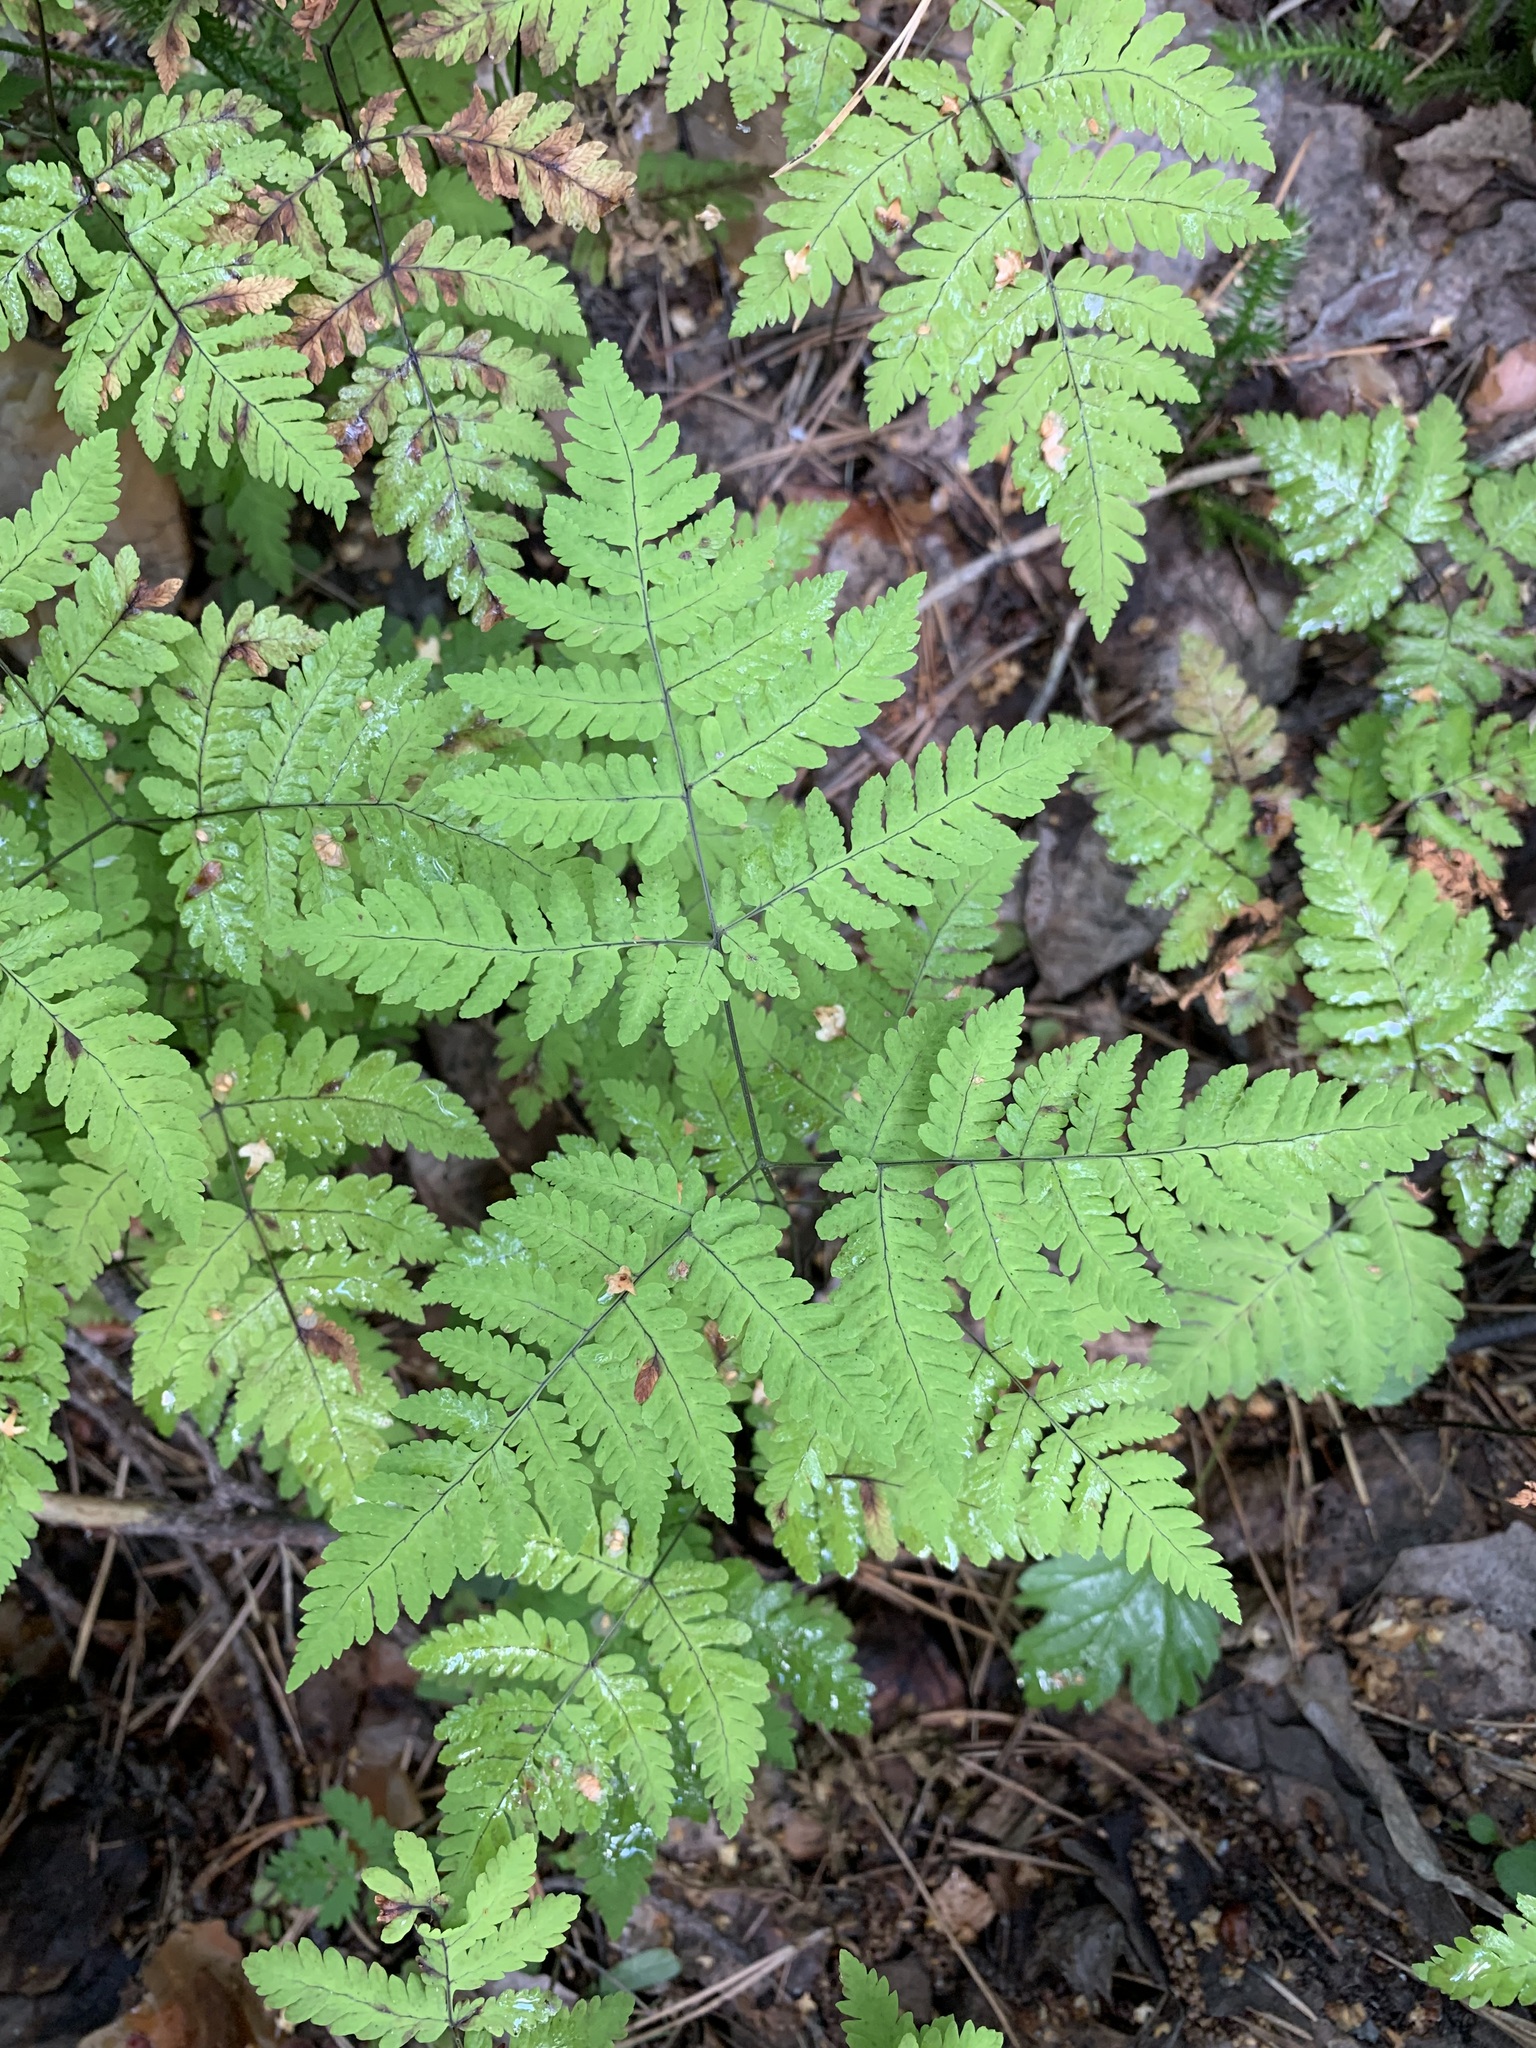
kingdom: Plantae
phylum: Tracheophyta
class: Polypodiopsida
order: Polypodiales
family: Cystopteridaceae
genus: Gymnocarpium
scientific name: Gymnocarpium dryopteris
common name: Oak fern
